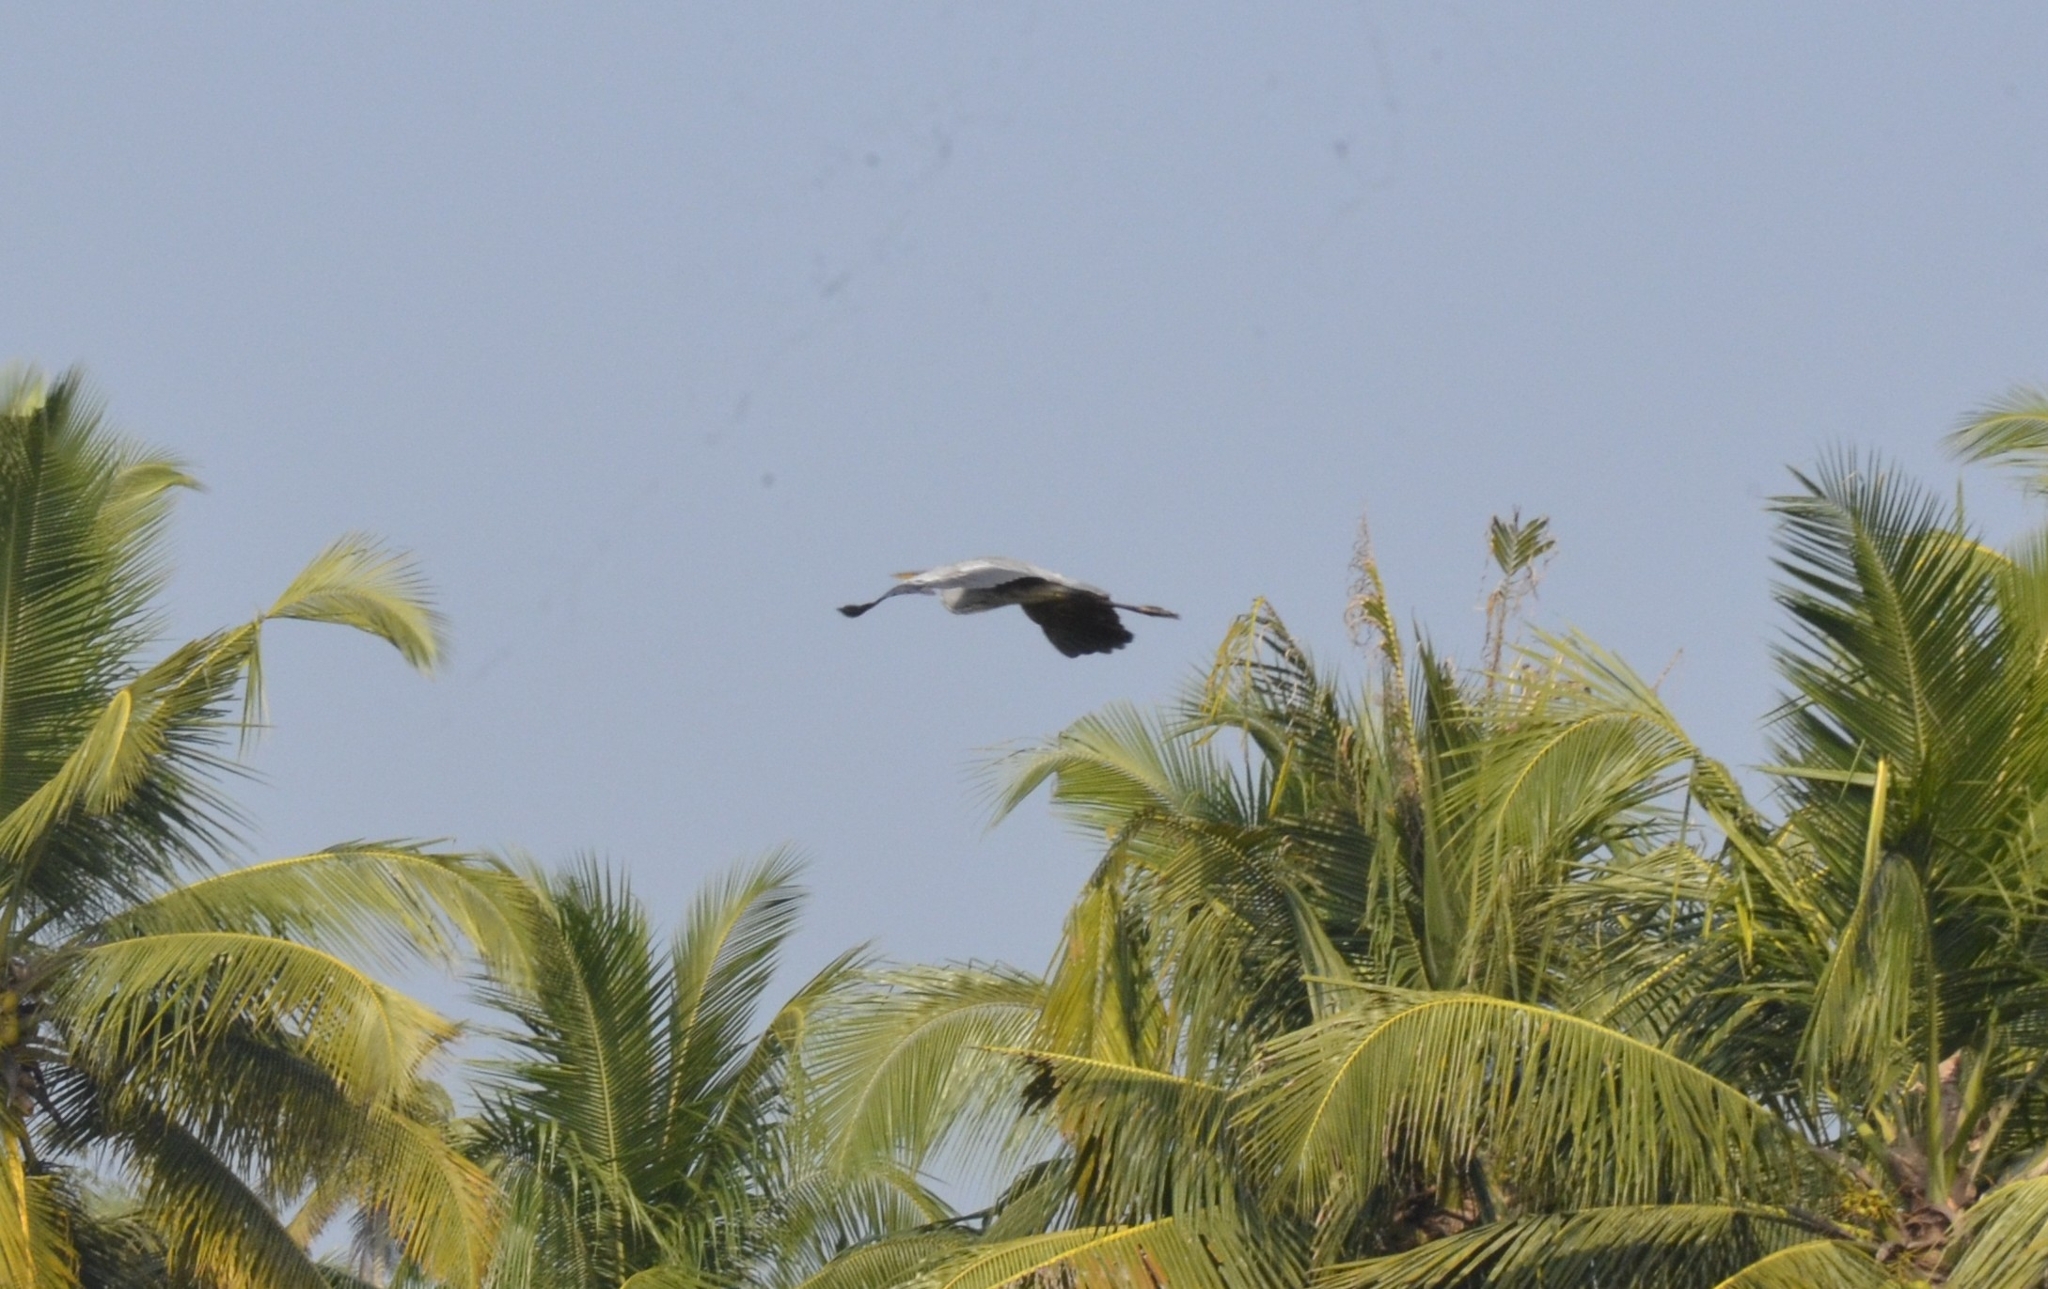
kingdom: Animalia
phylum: Chordata
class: Aves
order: Pelecaniformes
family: Ardeidae
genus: Ardea
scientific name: Ardea cinerea
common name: Grey heron
